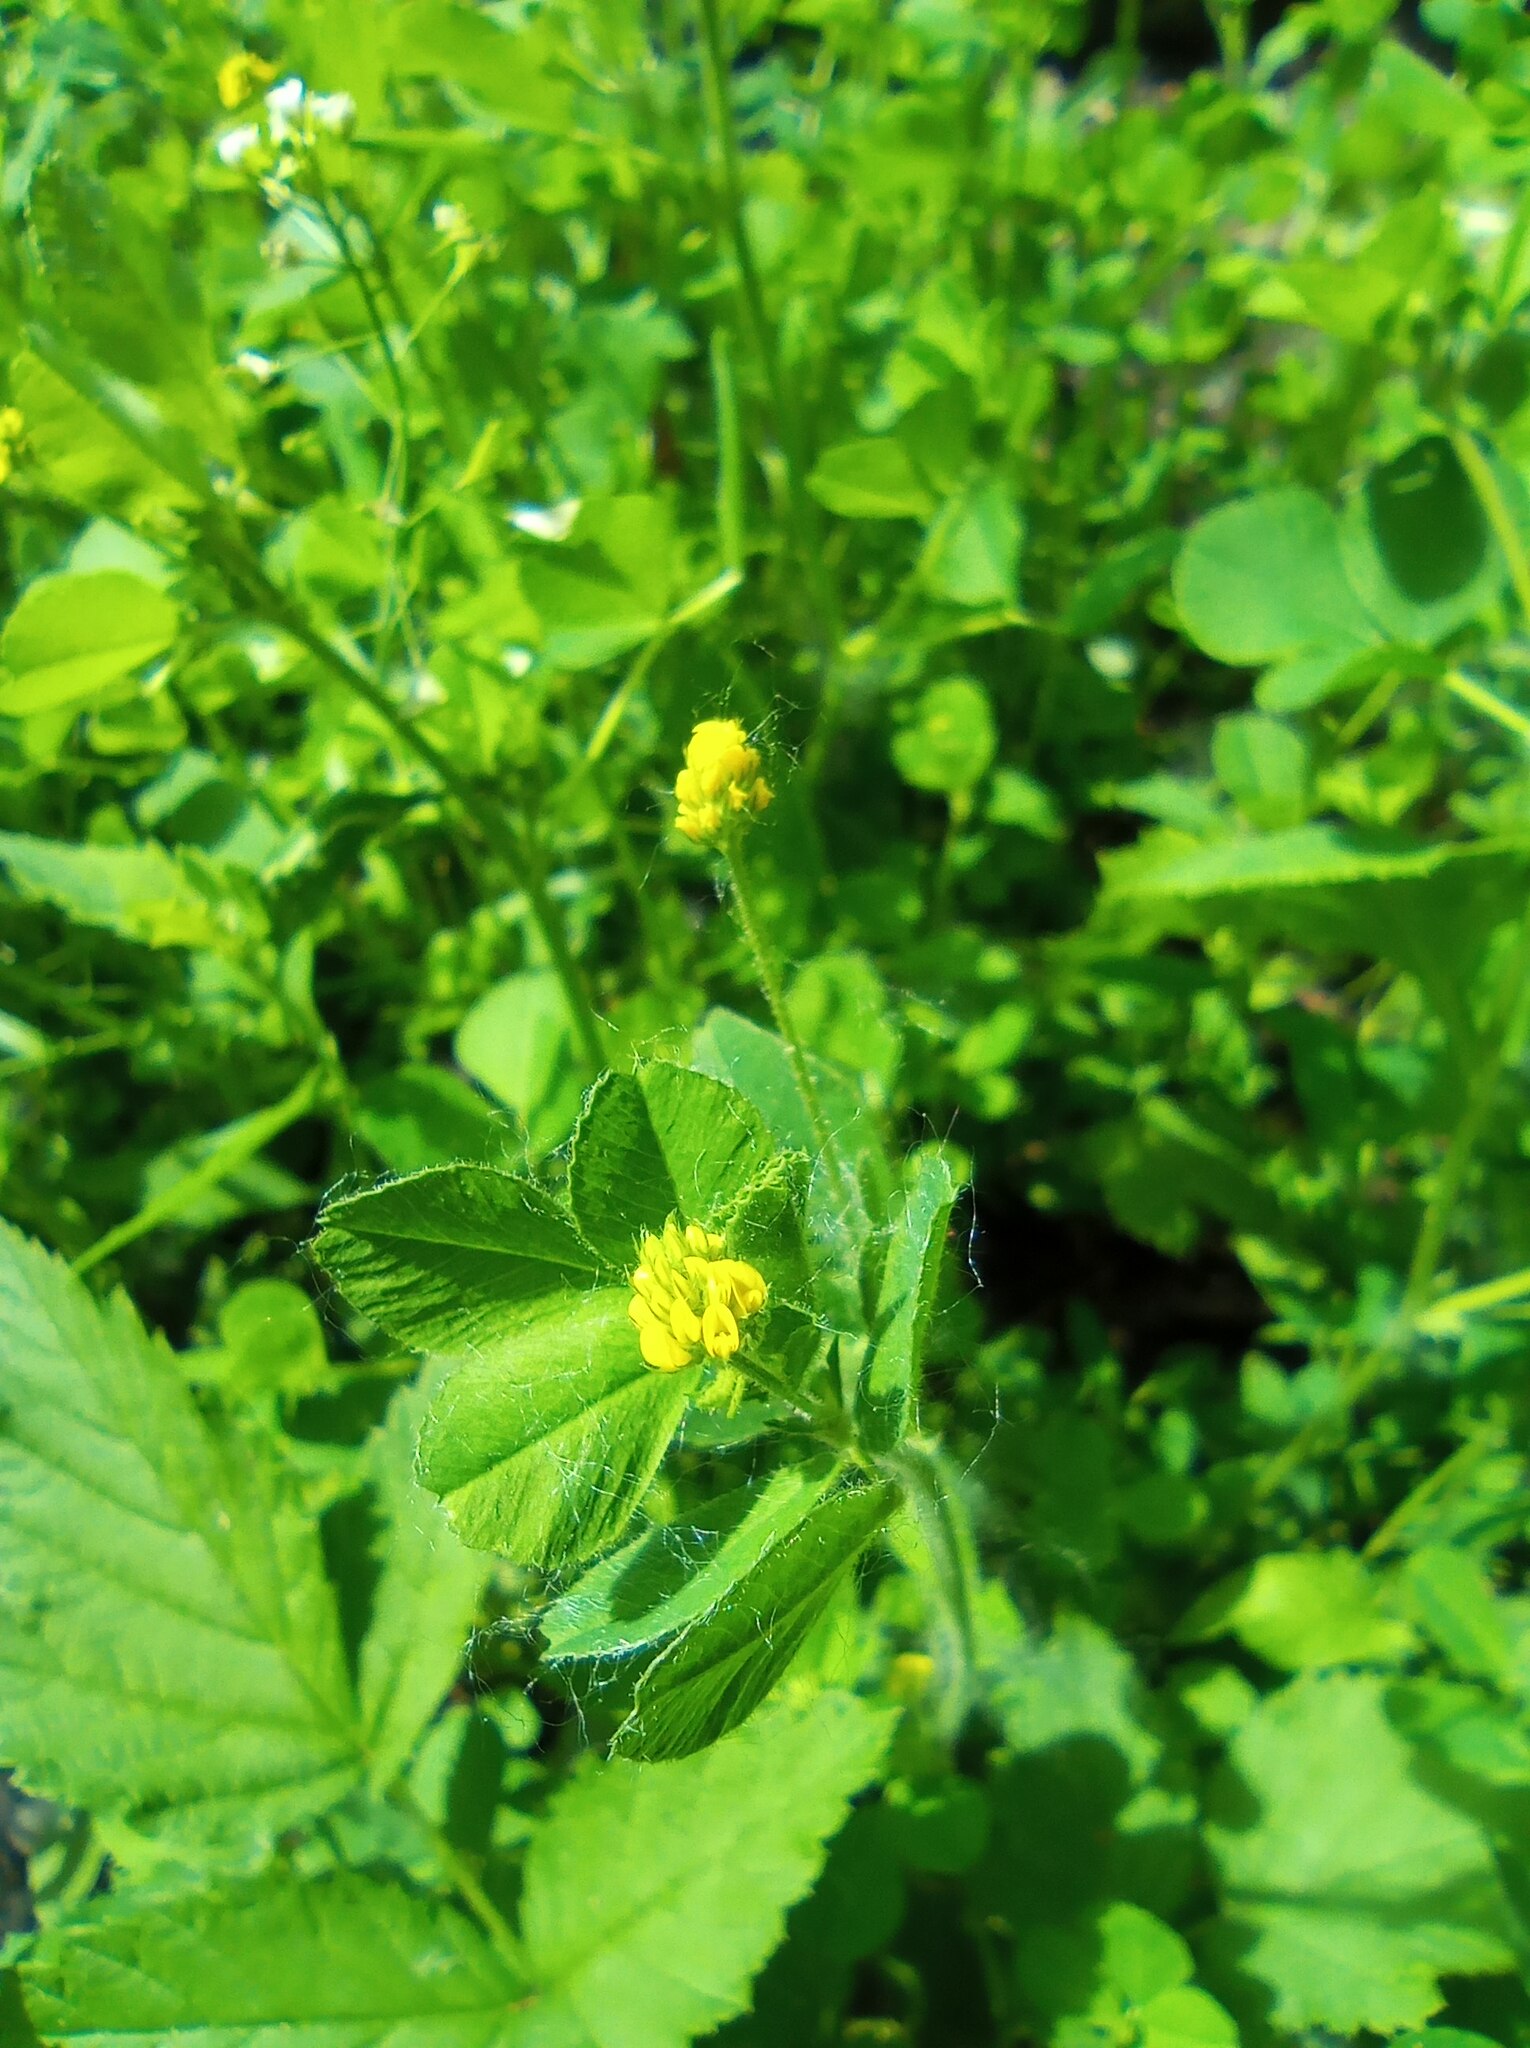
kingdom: Plantae
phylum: Tracheophyta
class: Magnoliopsida
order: Fabales
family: Fabaceae
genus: Medicago
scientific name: Medicago lupulina
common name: Black medick
